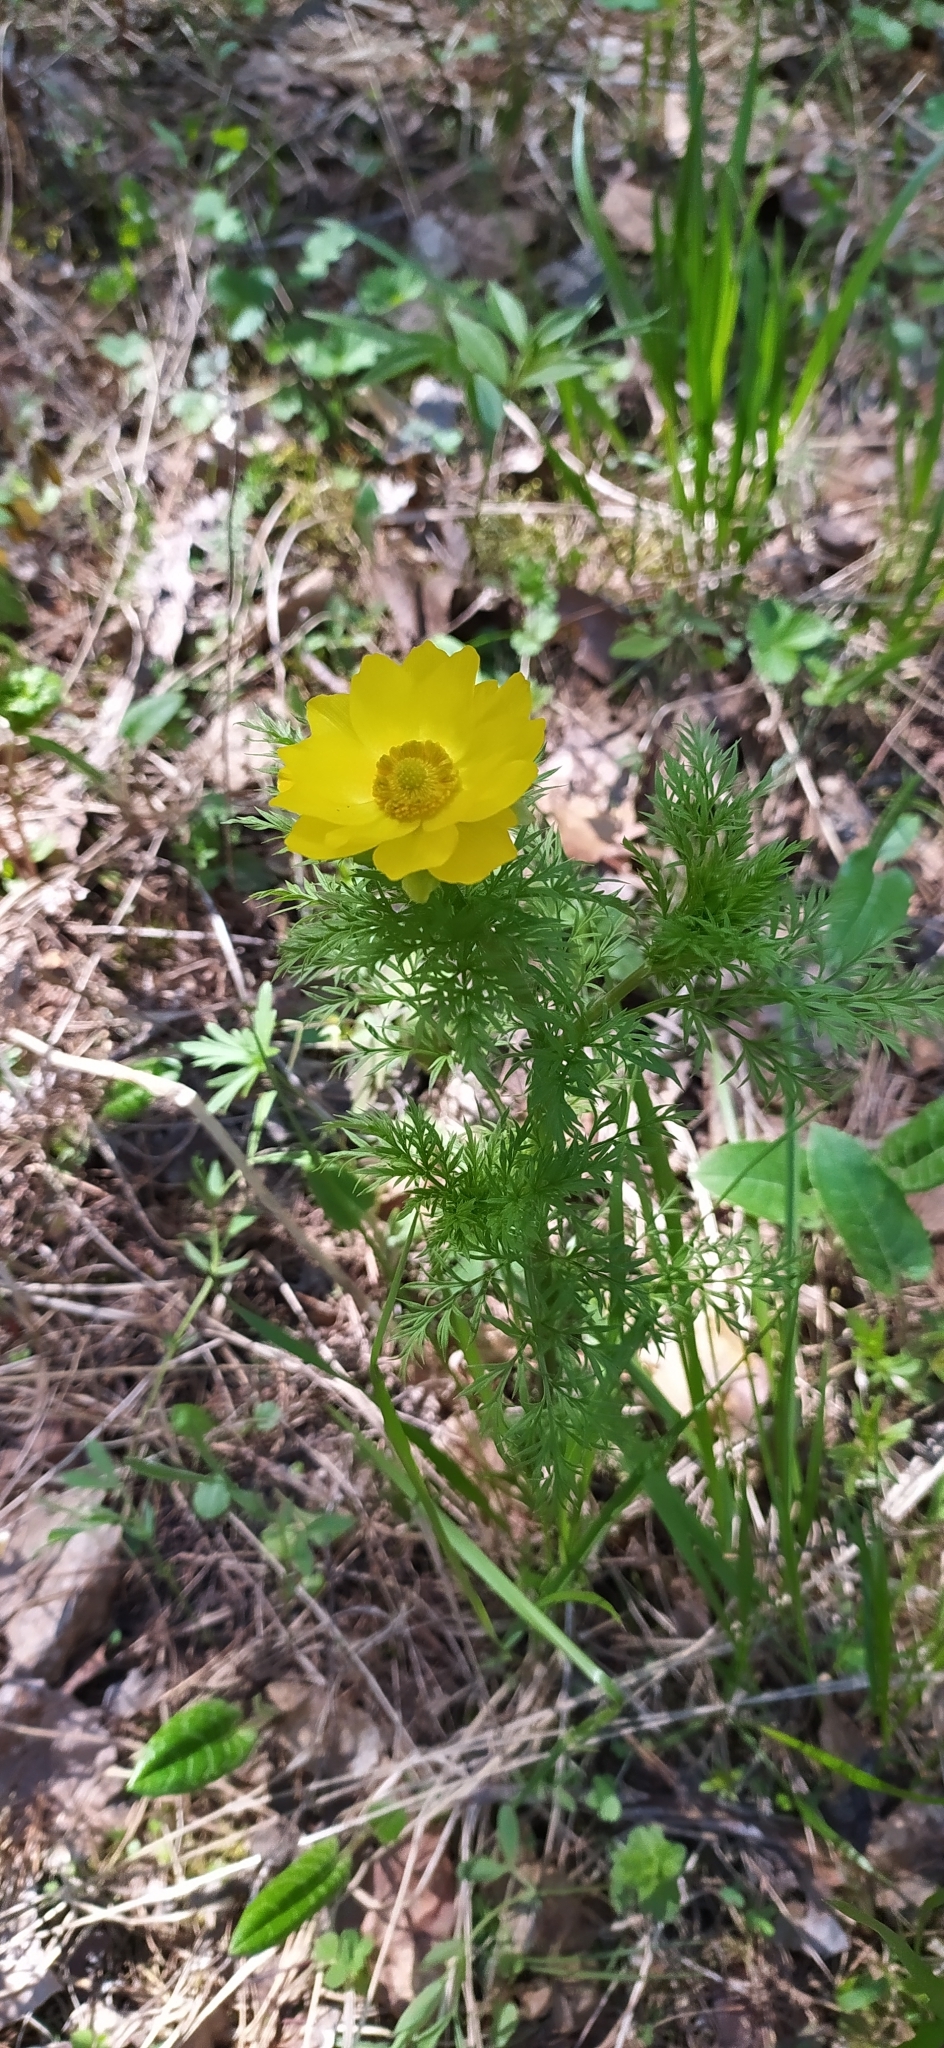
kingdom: Plantae
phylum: Tracheophyta
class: Magnoliopsida
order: Ranunculales
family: Ranunculaceae
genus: Adonis
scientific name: Adonis
